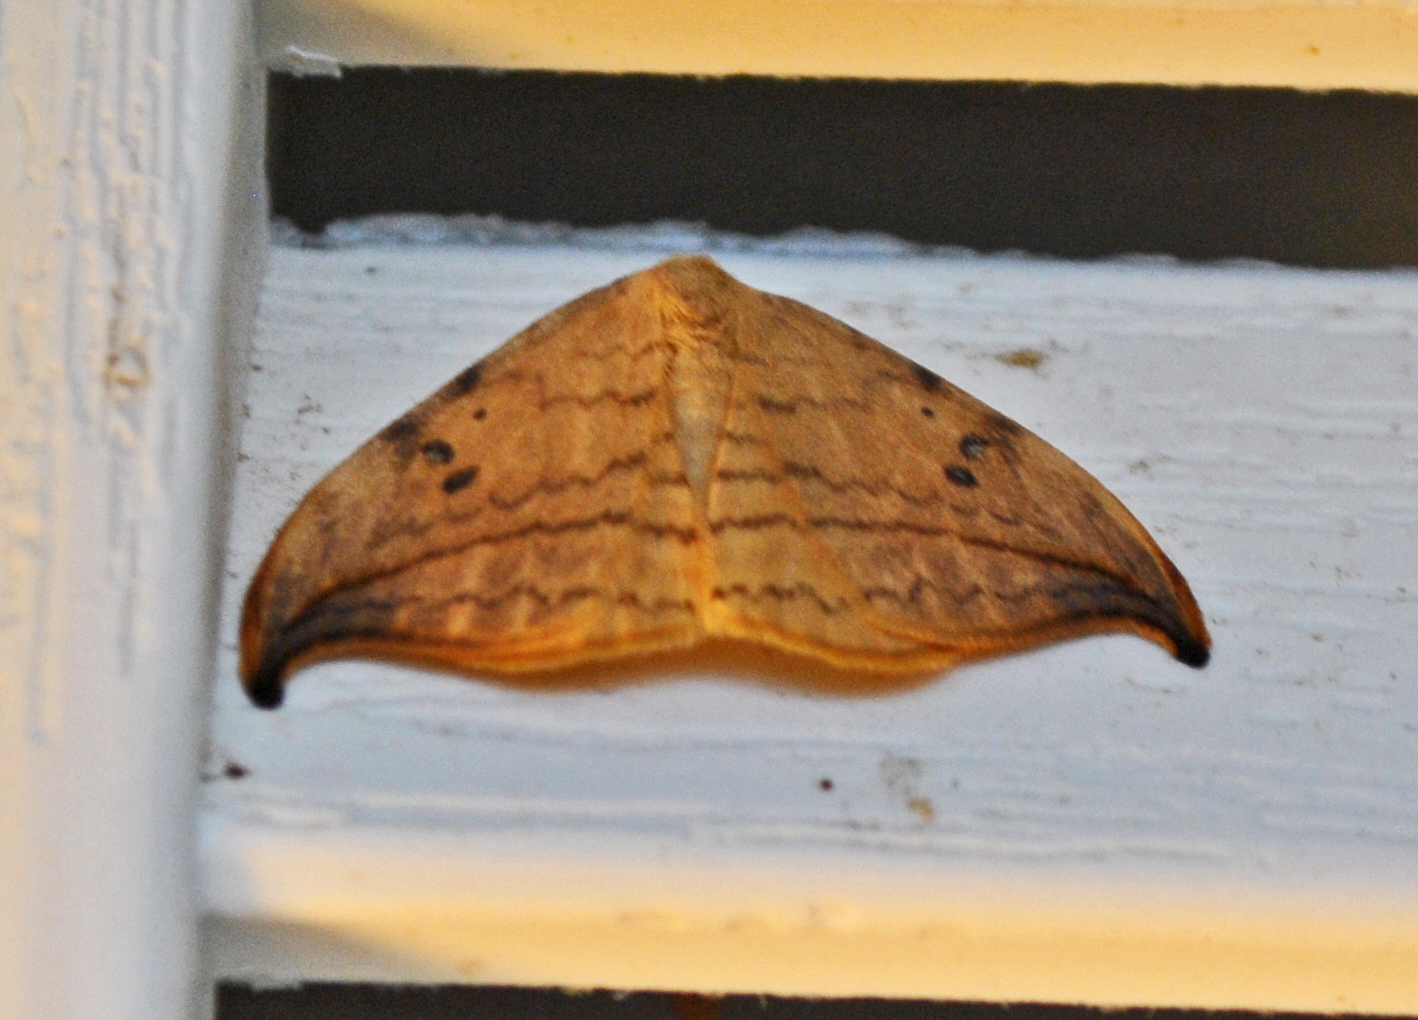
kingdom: Animalia
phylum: Arthropoda
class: Insecta
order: Lepidoptera
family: Drepanidae
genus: Drepana
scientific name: Drepana arcuata
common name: Arched hooktip moth
